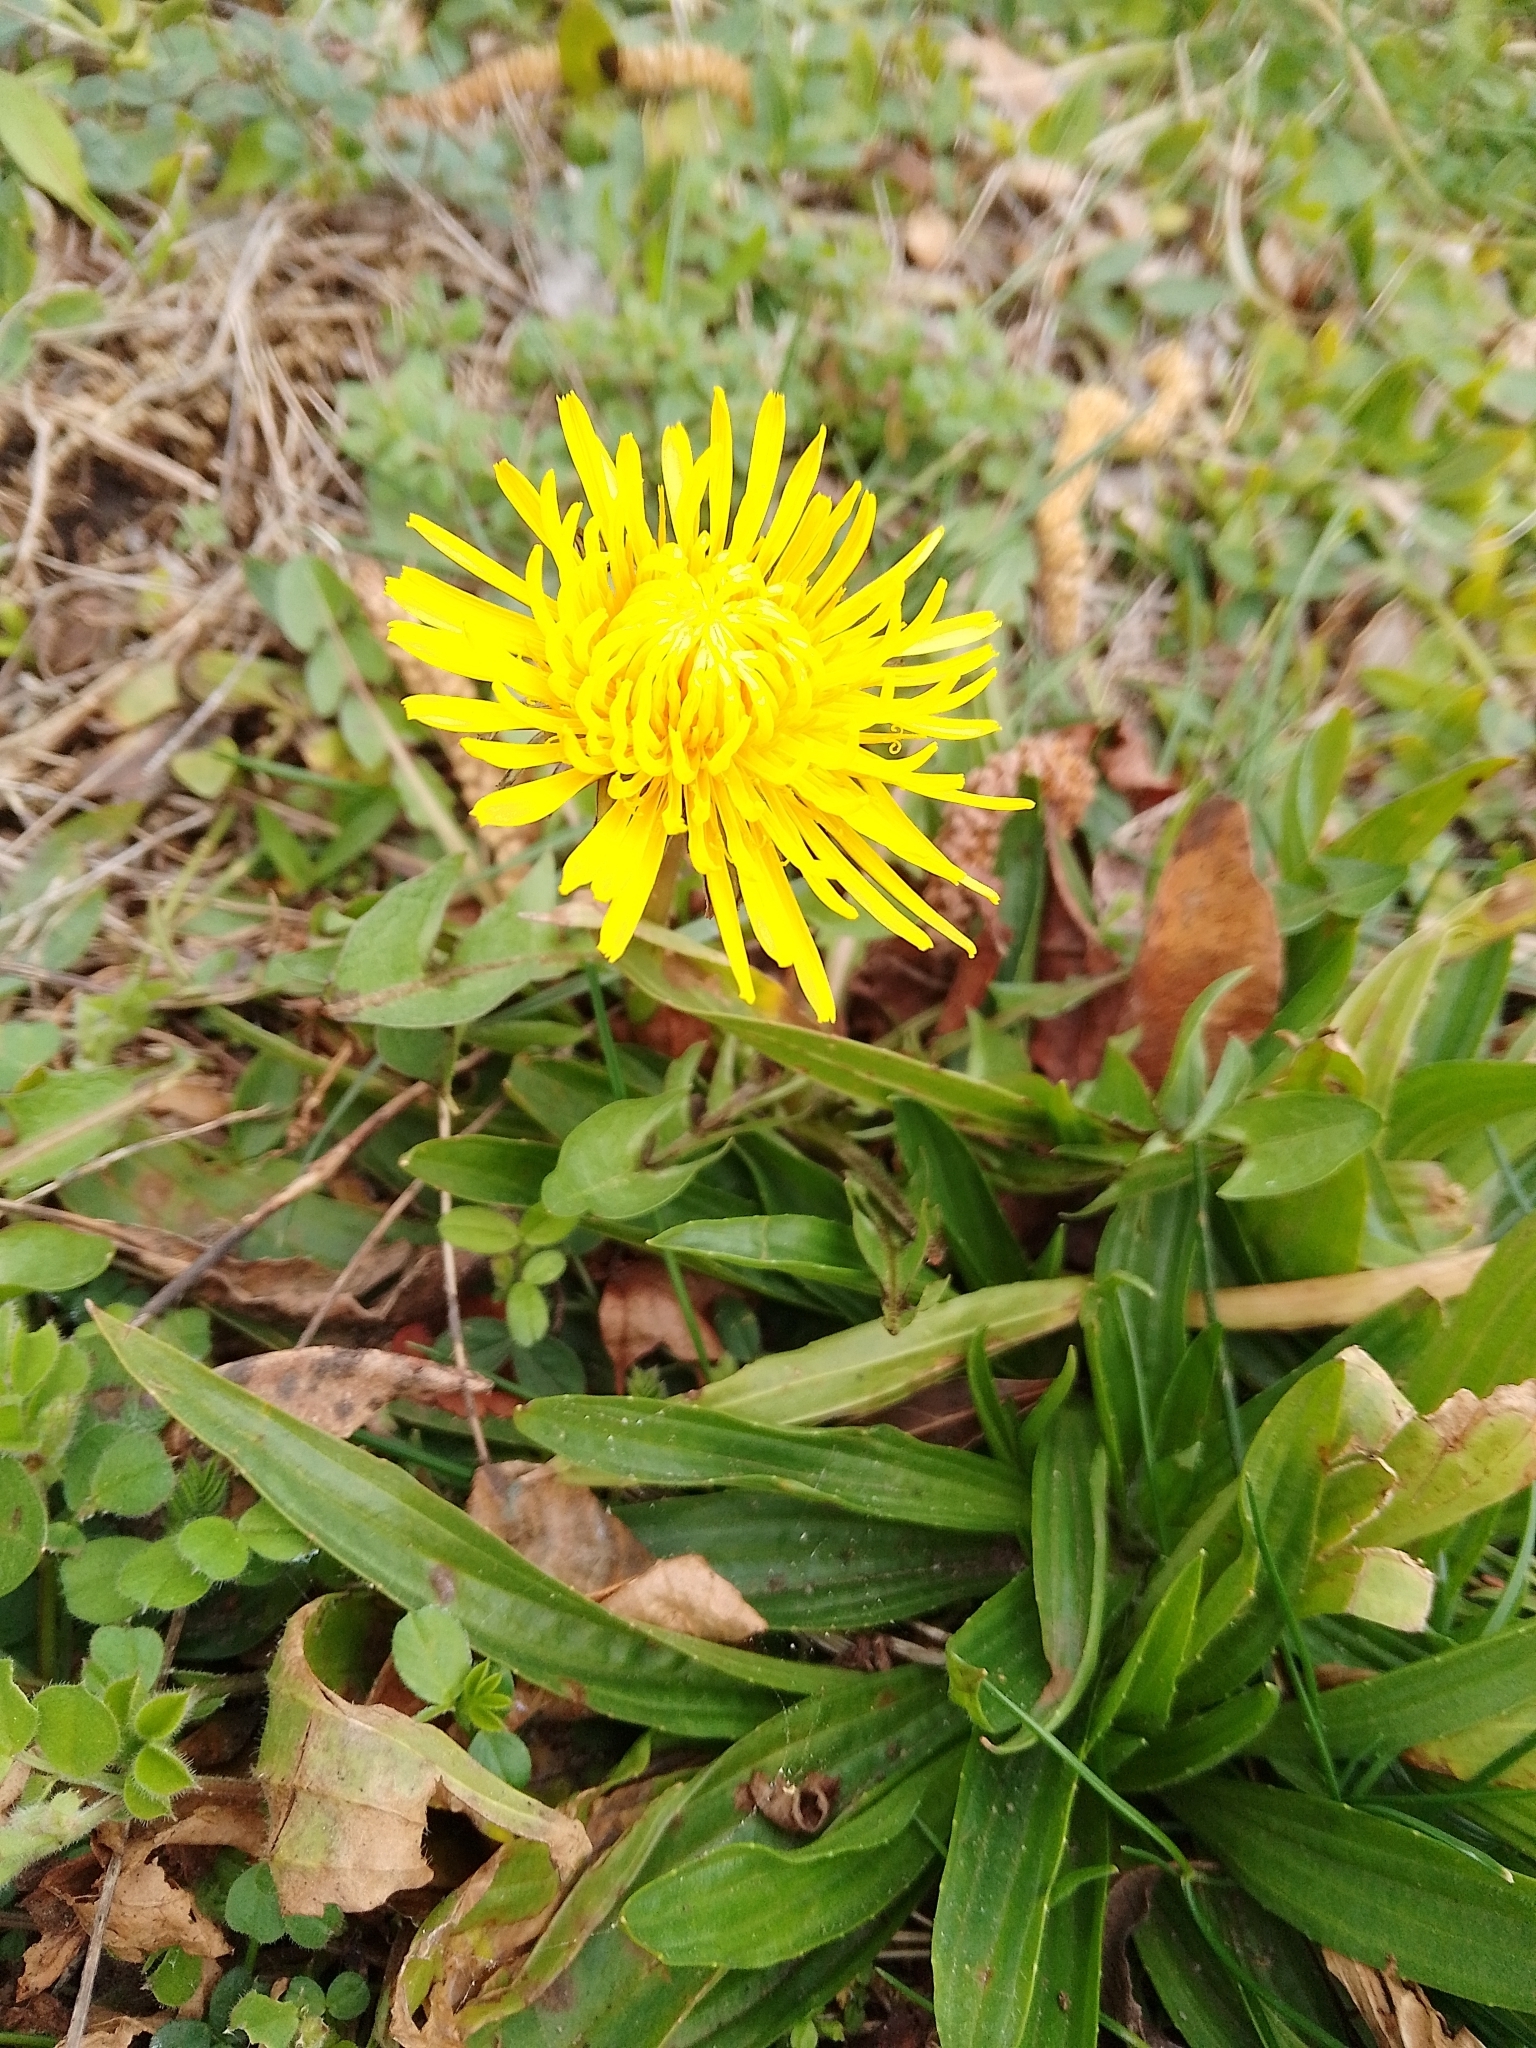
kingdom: Plantae
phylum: Tracheophyta
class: Magnoliopsida
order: Asterales
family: Asteraceae
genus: Taraxacum
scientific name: Taraxacum officinale
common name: Common dandelion
